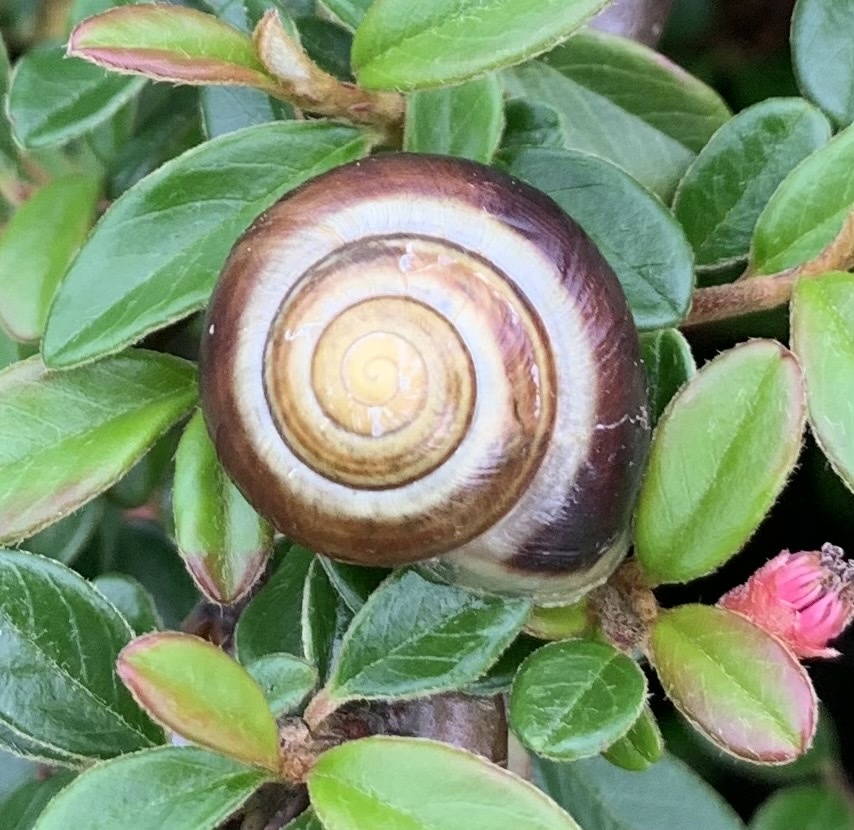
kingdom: Animalia
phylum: Mollusca
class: Gastropoda
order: Stylommatophora
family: Helicidae
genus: Cepaea
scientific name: Cepaea hortensis
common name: White-lip gardensnail
